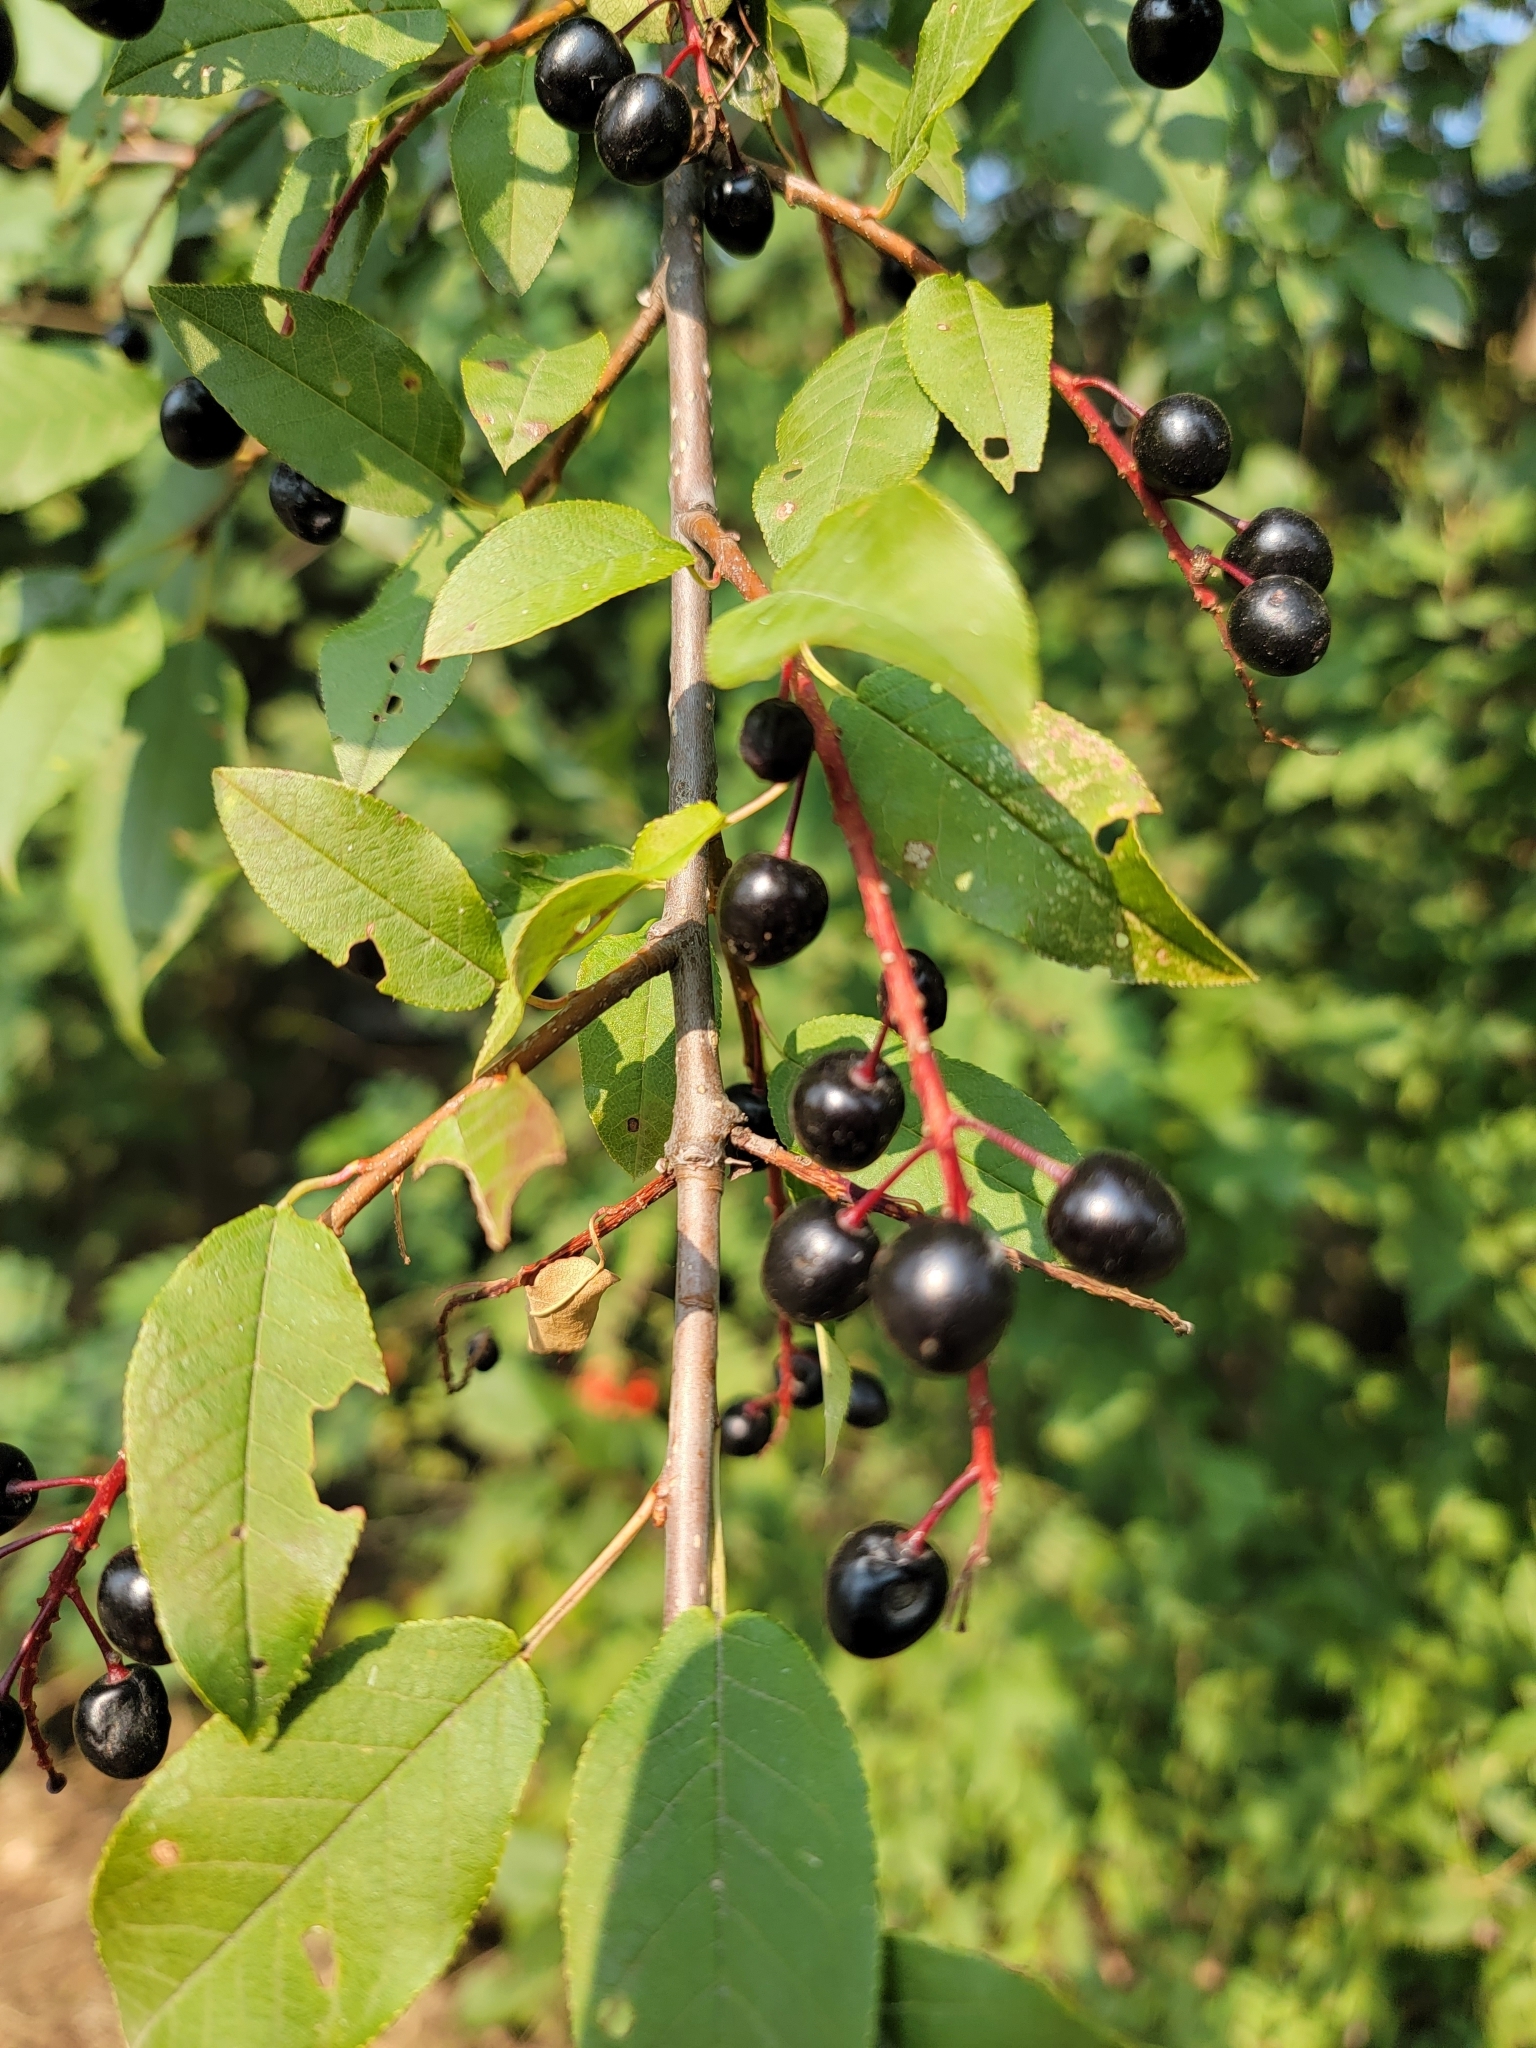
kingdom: Plantae
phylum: Tracheophyta
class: Magnoliopsida
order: Rosales
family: Rosaceae
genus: Prunus
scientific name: Prunus virginiana
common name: Chokecherry
